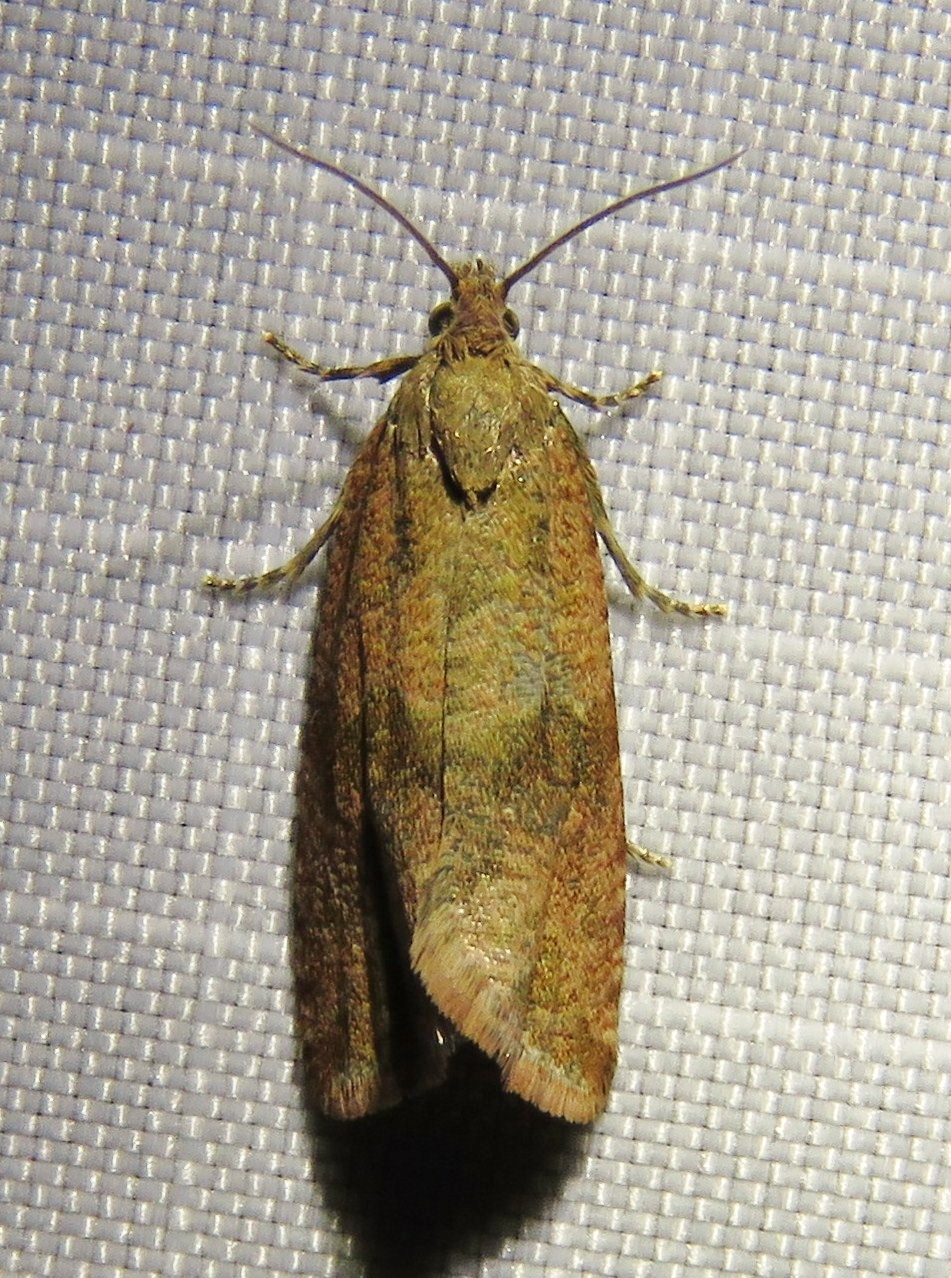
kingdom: Animalia
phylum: Arthropoda
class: Insecta
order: Lepidoptera
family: Tortricidae
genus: Celypha
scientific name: Celypha striana
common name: Barred marble
